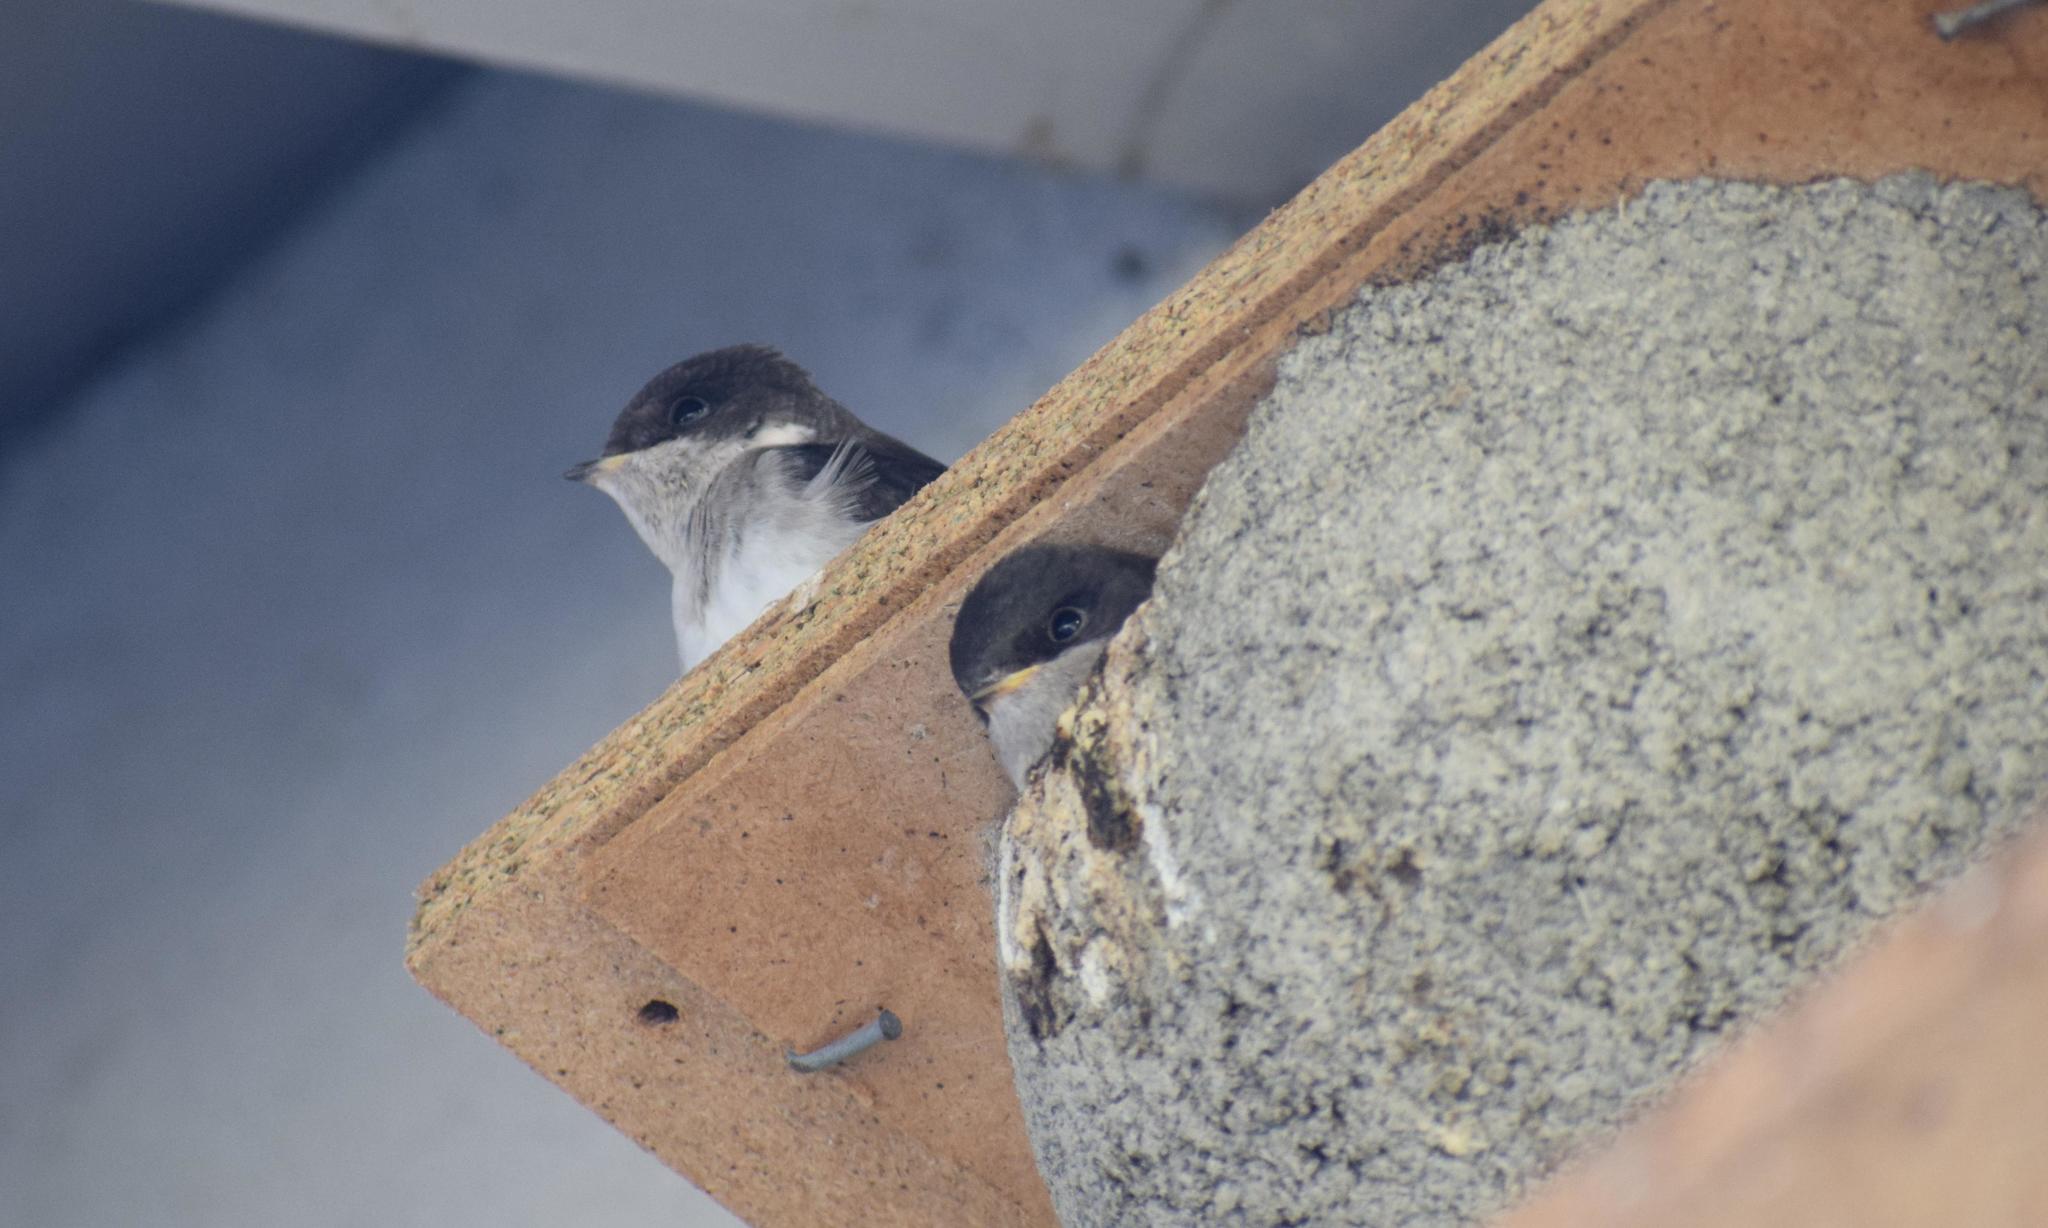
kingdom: Animalia
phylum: Chordata
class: Aves
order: Passeriformes
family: Hirundinidae
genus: Delichon
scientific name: Delichon urbicum
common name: Common house martin
